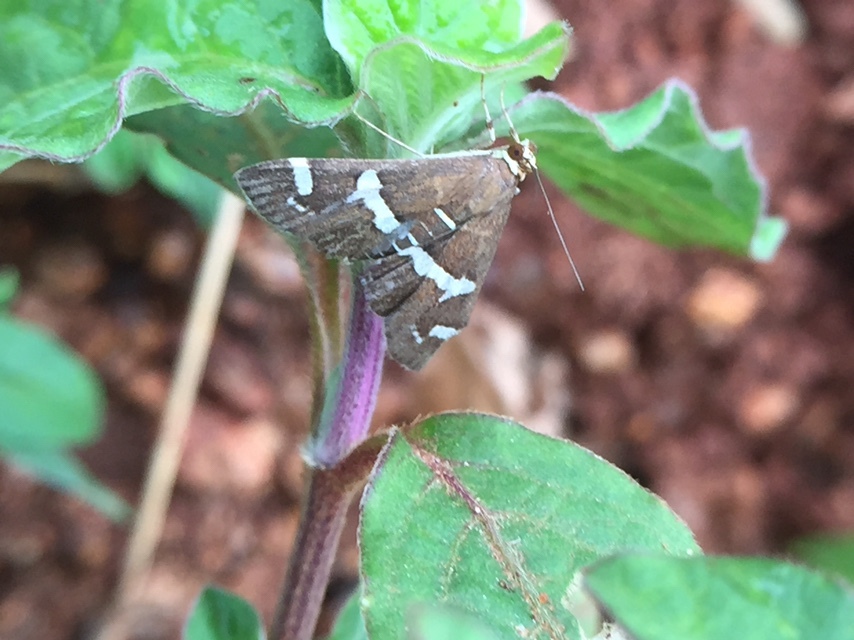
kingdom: Animalia
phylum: Arthropoda
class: Insecta
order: Lepidoptera
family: Crambidae
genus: Spoladea
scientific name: Spoladea recurvalis
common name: Beet webworm moth
